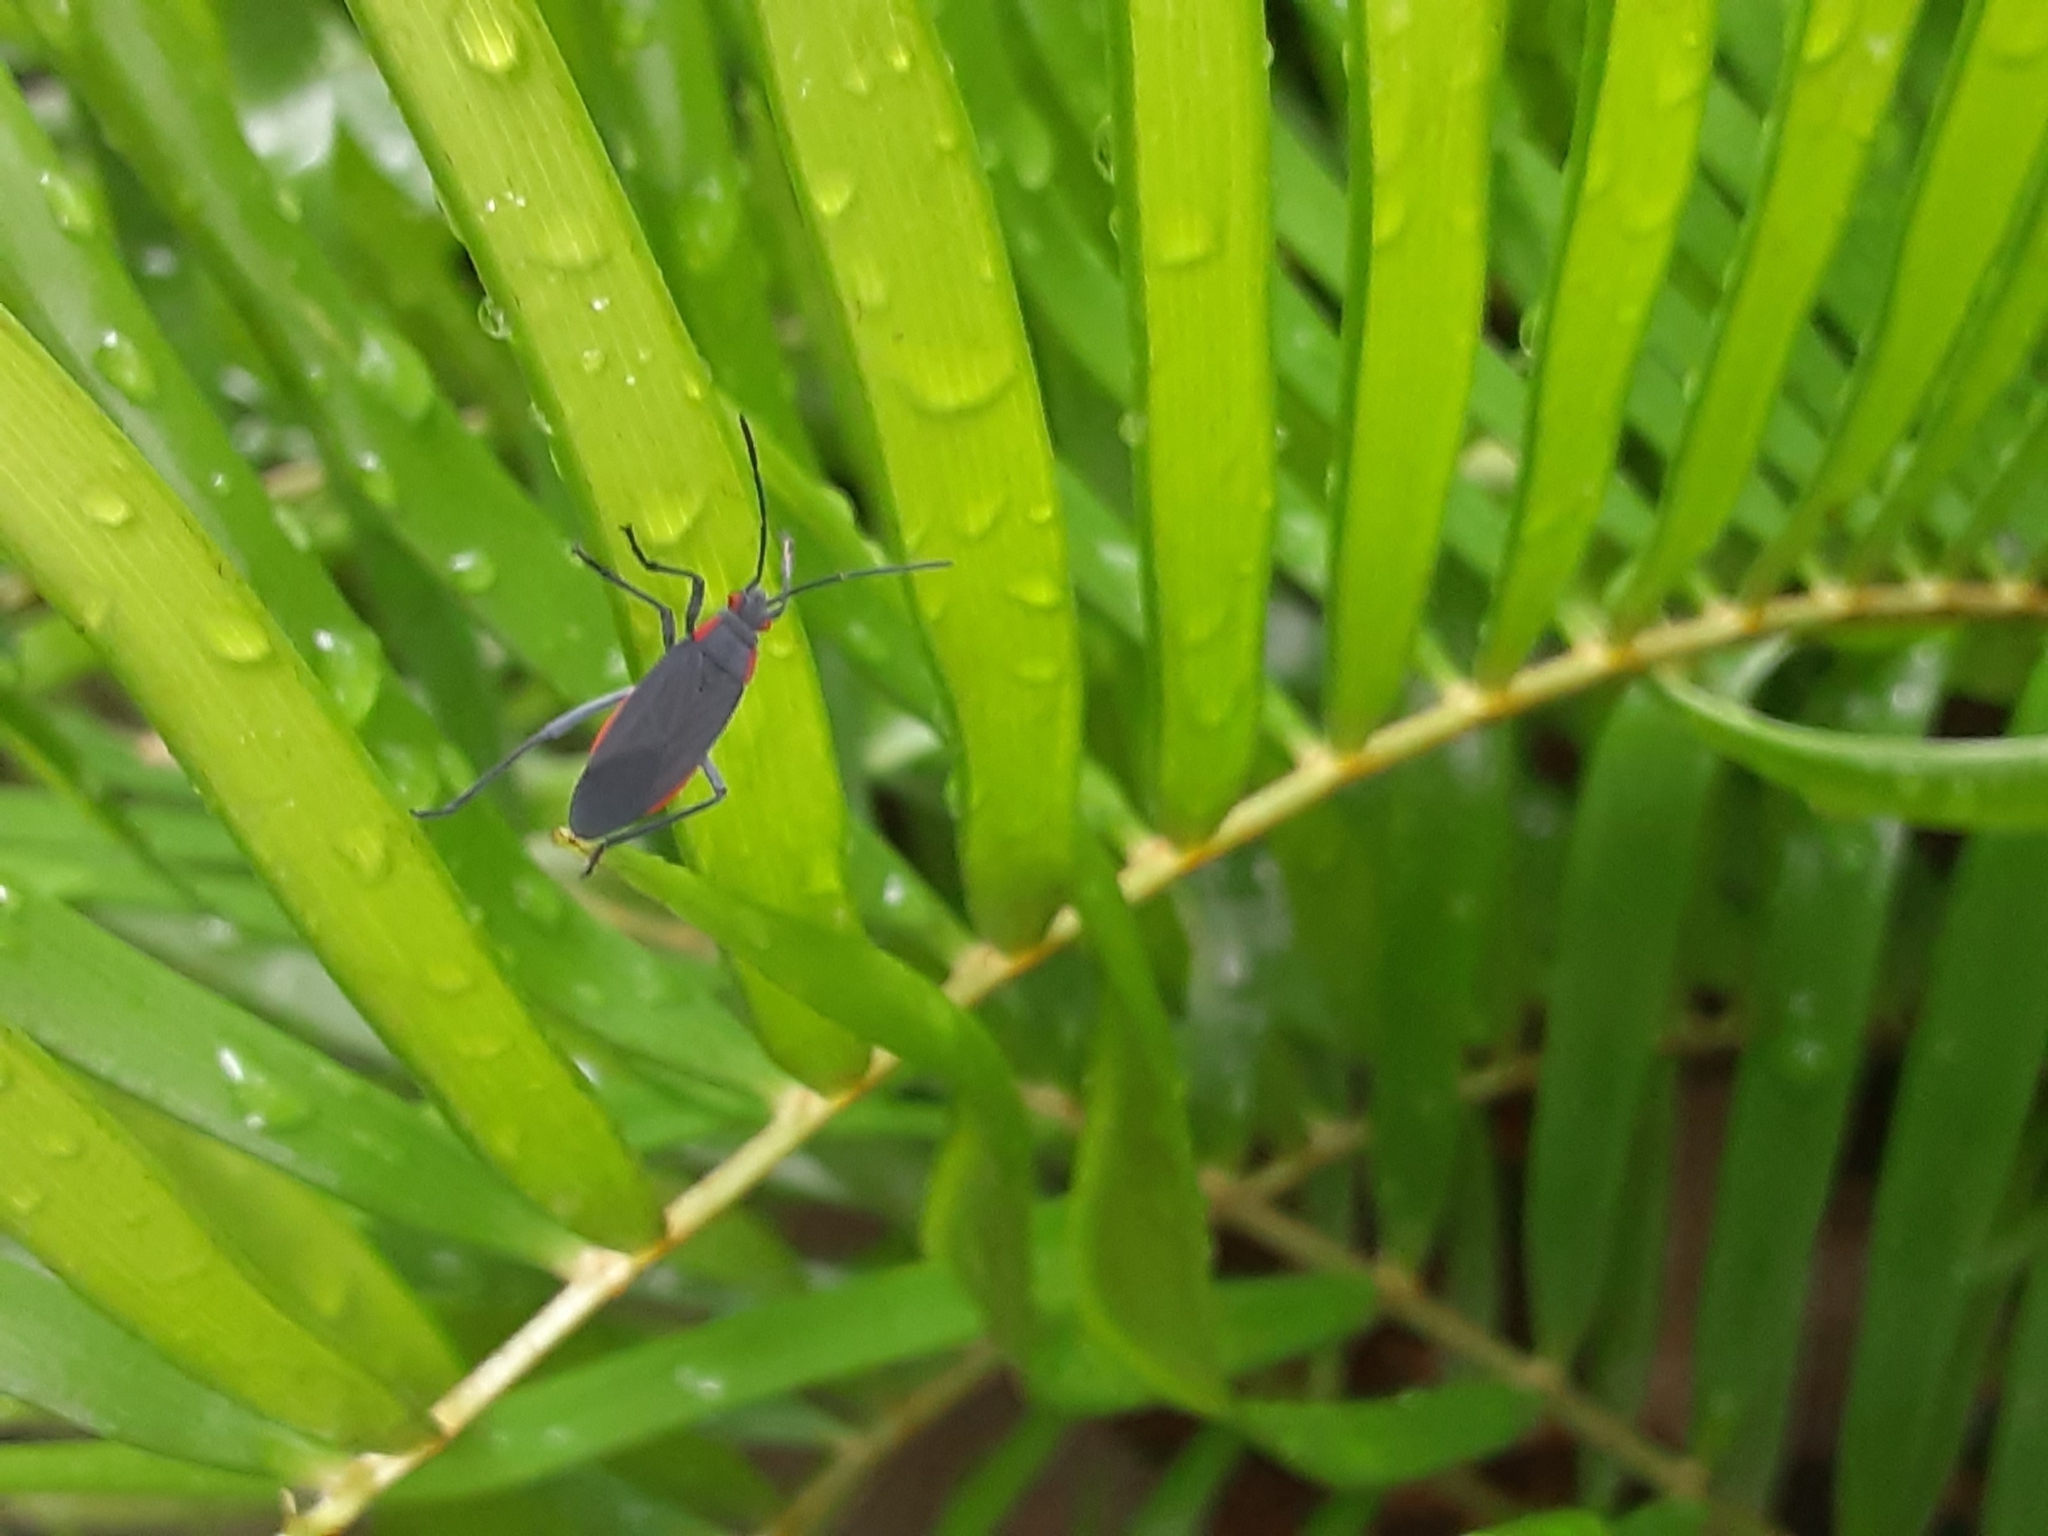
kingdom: Animalia
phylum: Arthropoda
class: Insecta
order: Hemiptera
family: Rhopalidae
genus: Jadera
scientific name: Jadera haematoloma
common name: Red-shouldered bug
